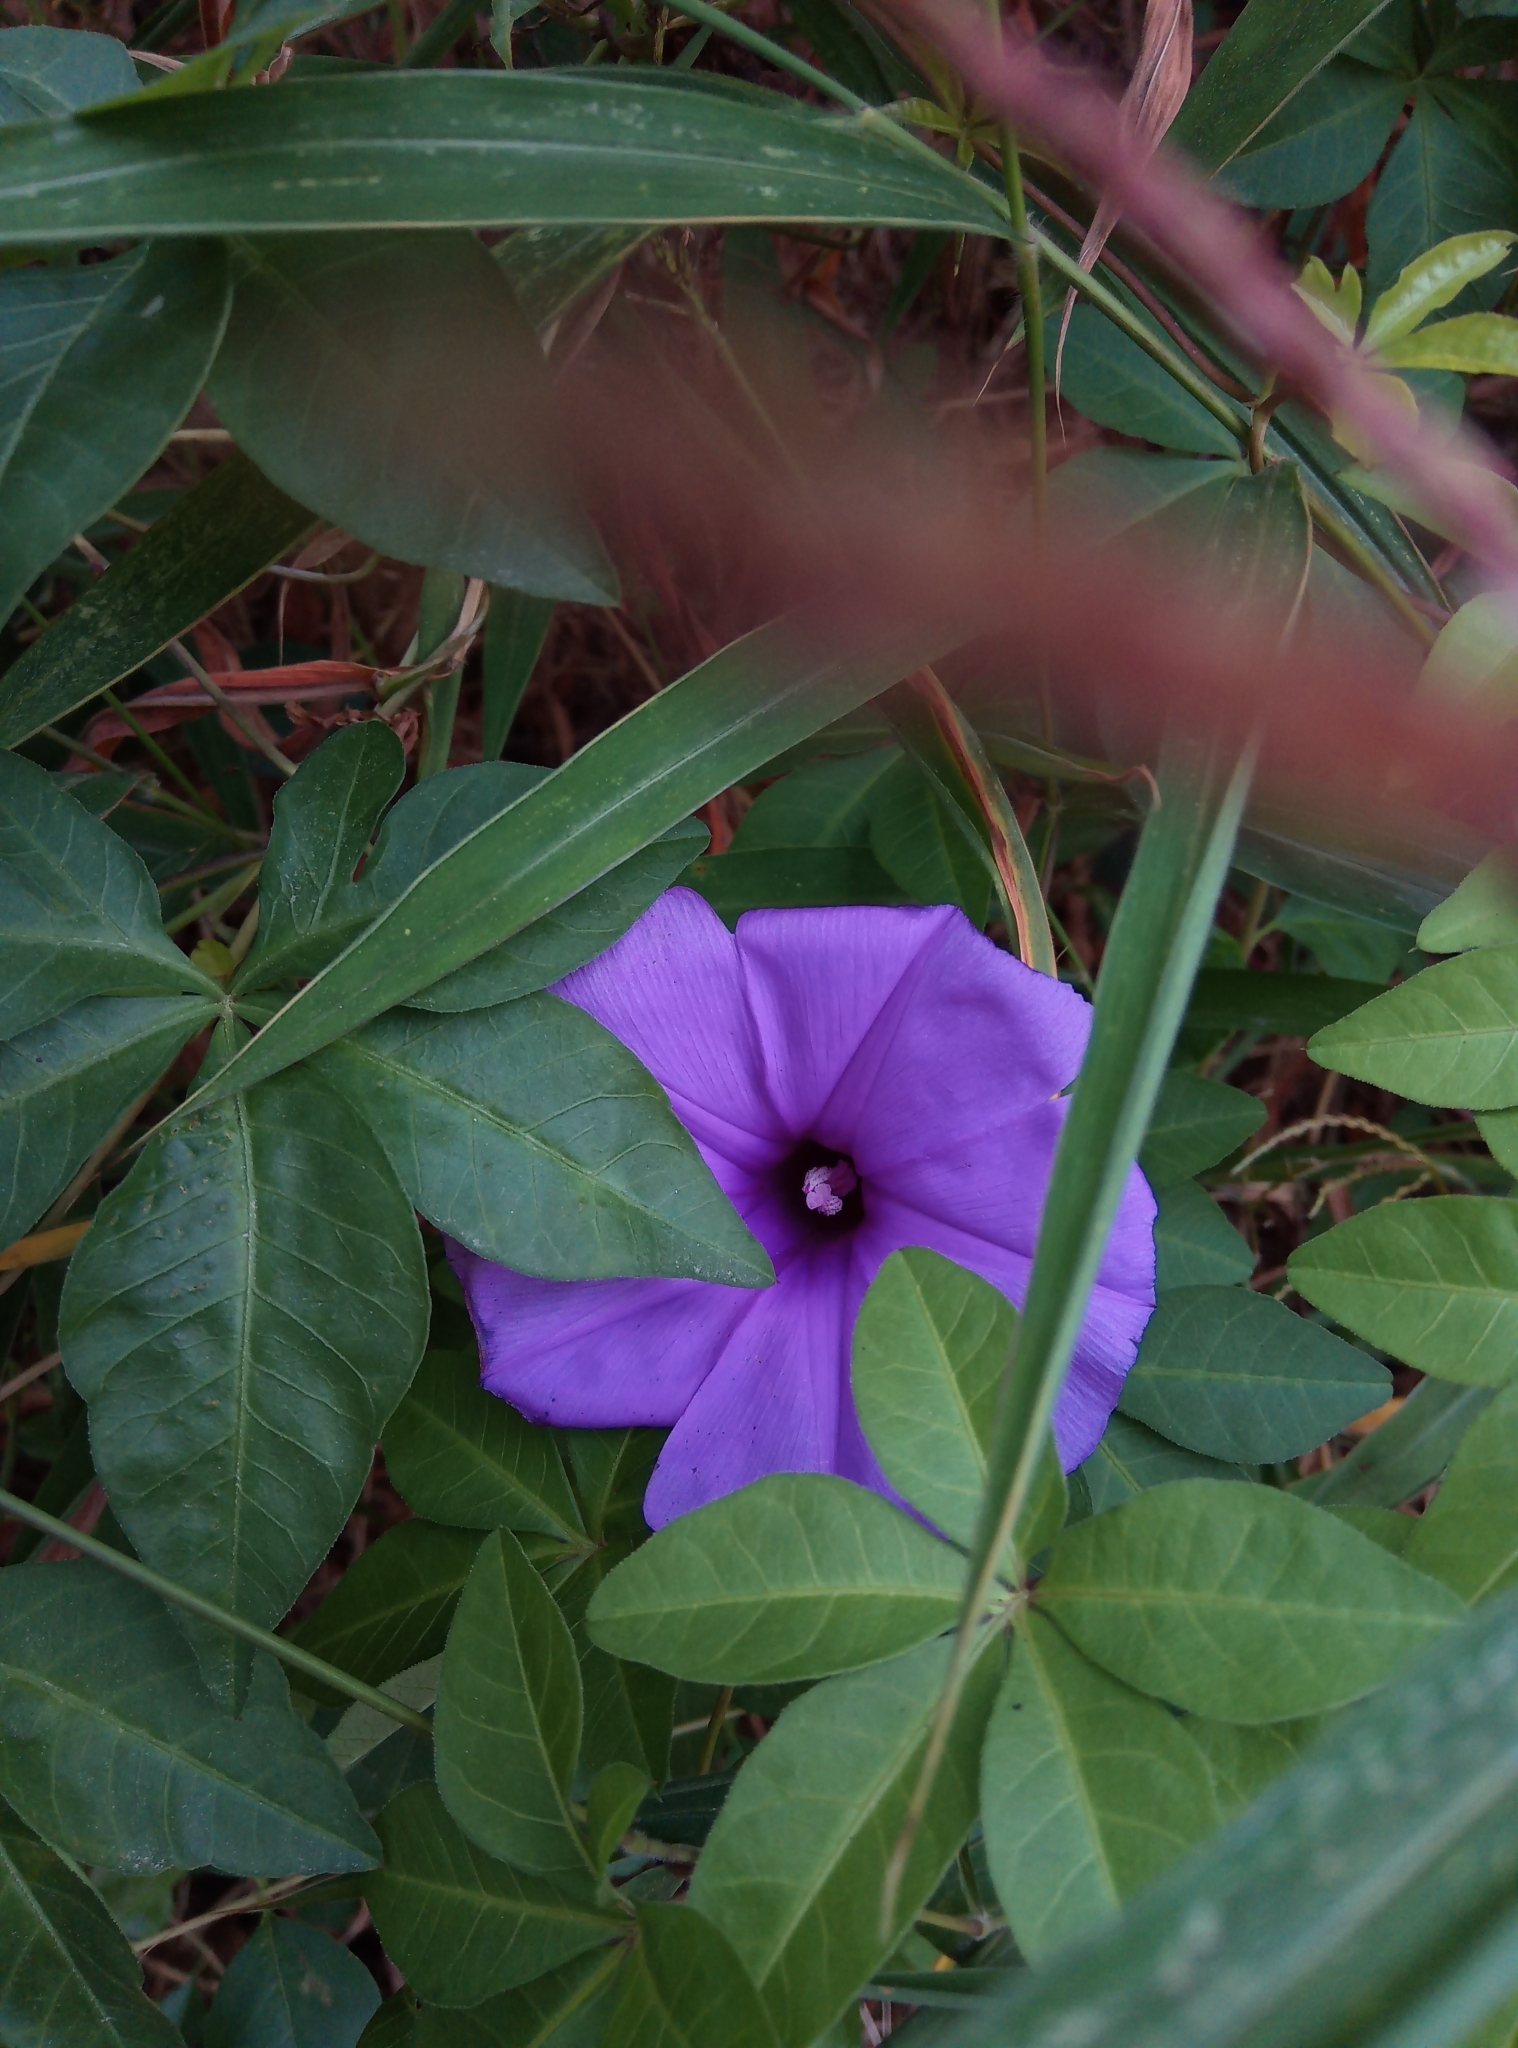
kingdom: Plantae
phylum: Tracheophyta
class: Magnoliopsida
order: Solanales
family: Convolvulaceae
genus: Ipomoea
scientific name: Ipomoea cairica
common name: Mile a minute vine
